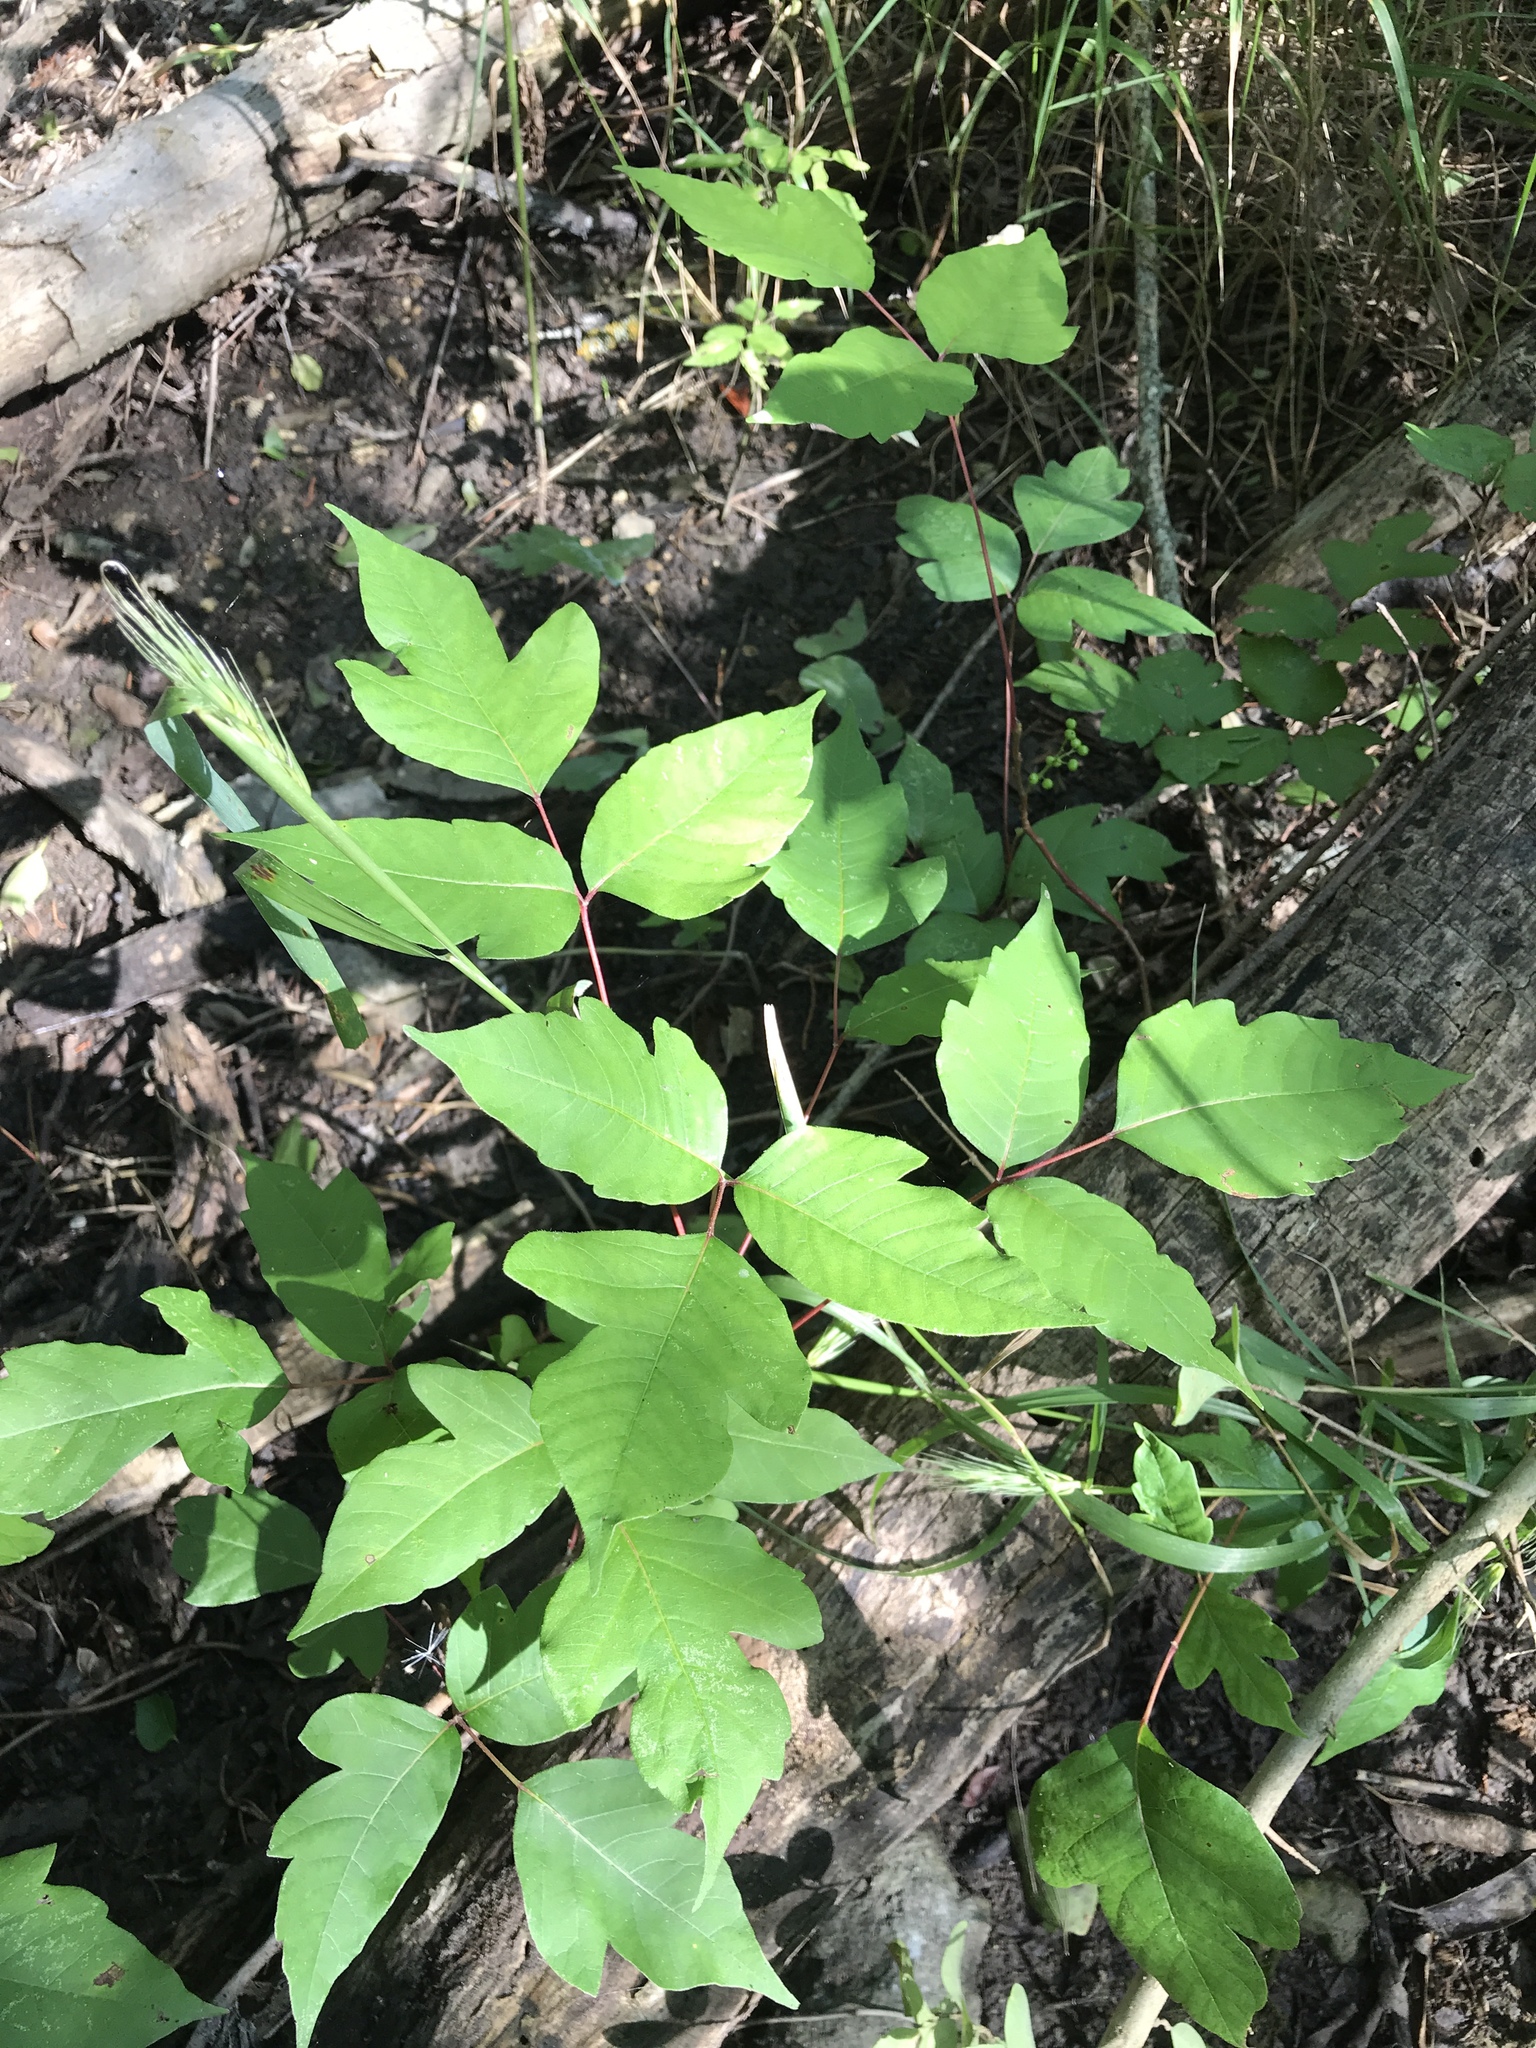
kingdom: Plantae
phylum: Tracheophyta
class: Magnoliopsida
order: Sapindales
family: Anacardiaceae
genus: Toxicodendron
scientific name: Toxicodendron radicans
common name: Poison ivy
